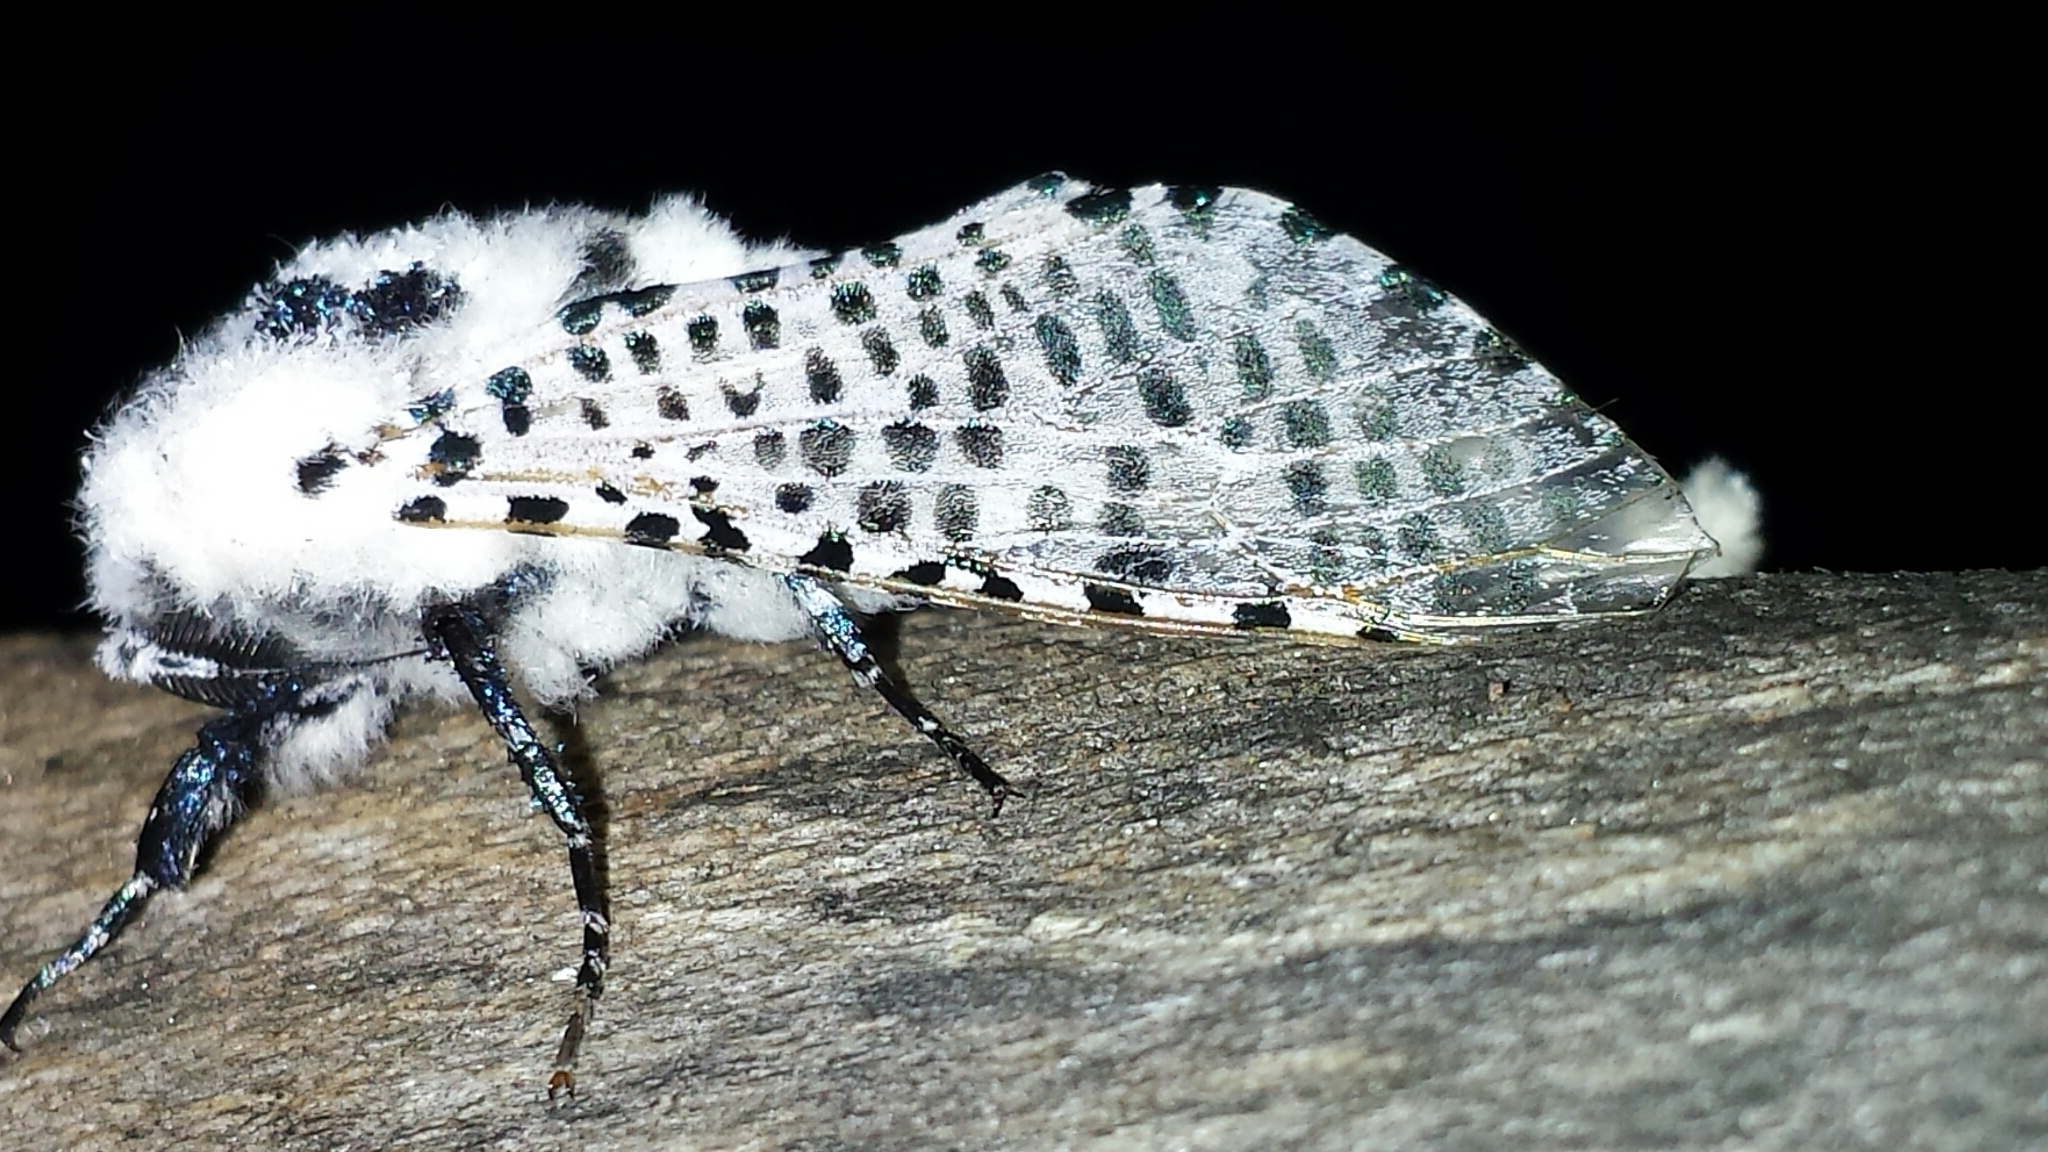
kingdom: Animalia
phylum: Arthropoda
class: Insecta
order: Lepidoptera
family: Cossidae
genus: Zeuzera
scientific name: Zeuzera pyrina
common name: Leopard moth
